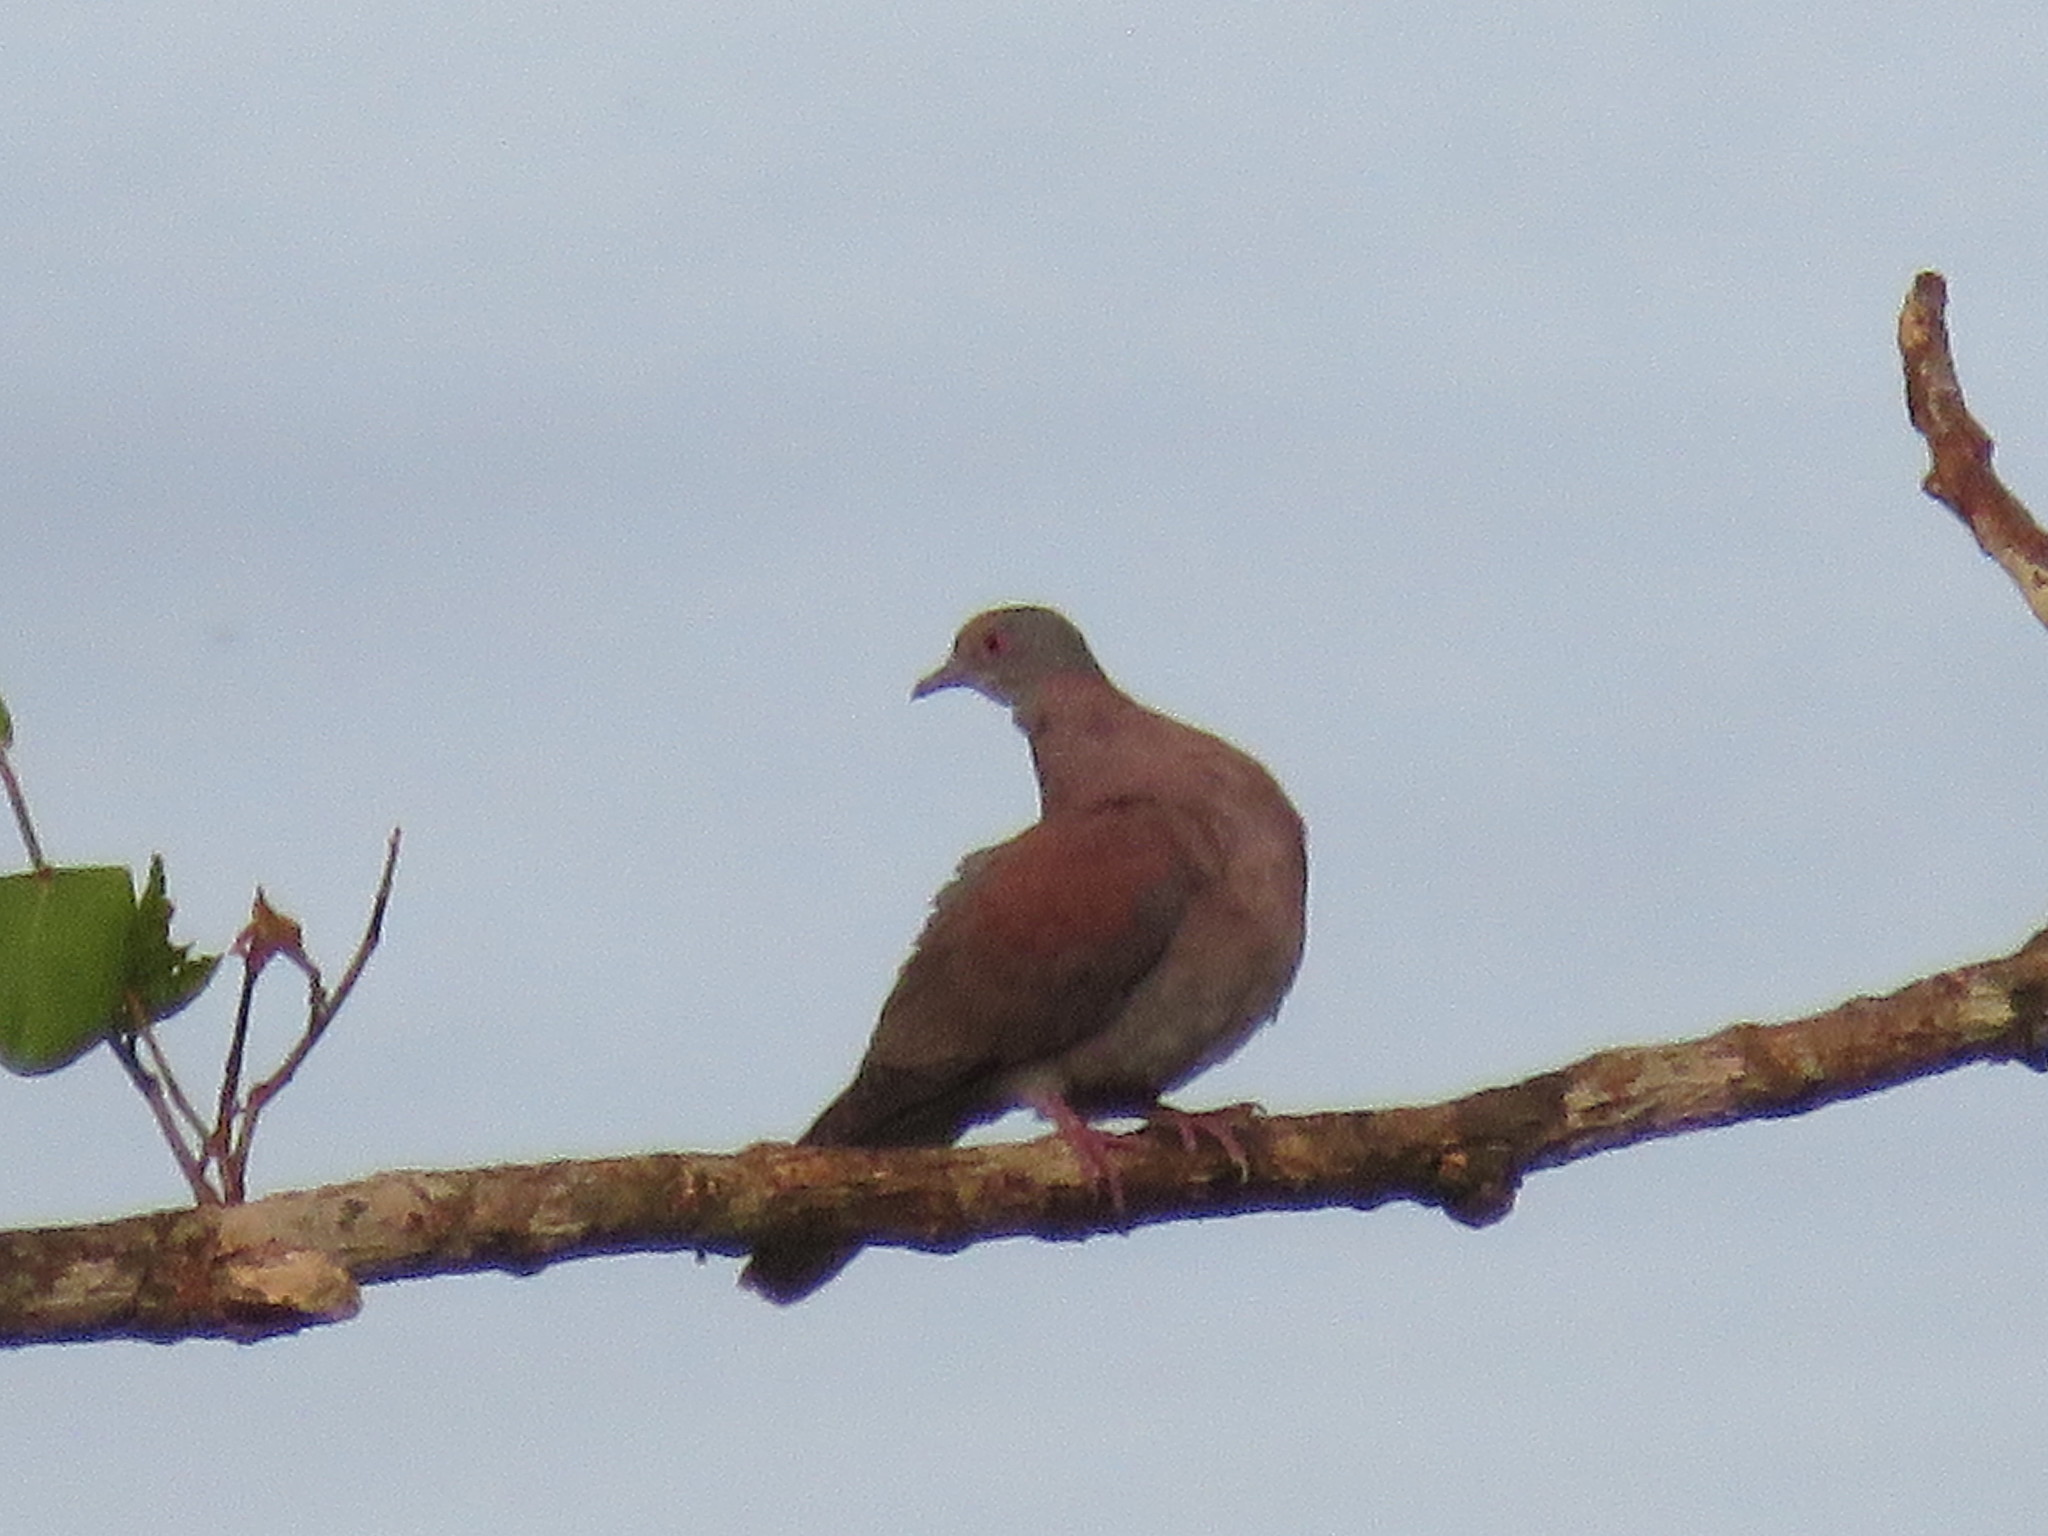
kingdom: Animalia
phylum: Chordata
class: Aves
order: Columbiformes
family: Columbidae
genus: Patagioenas
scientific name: Patagioenas cayennensis
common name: Pale-vented pigeon
